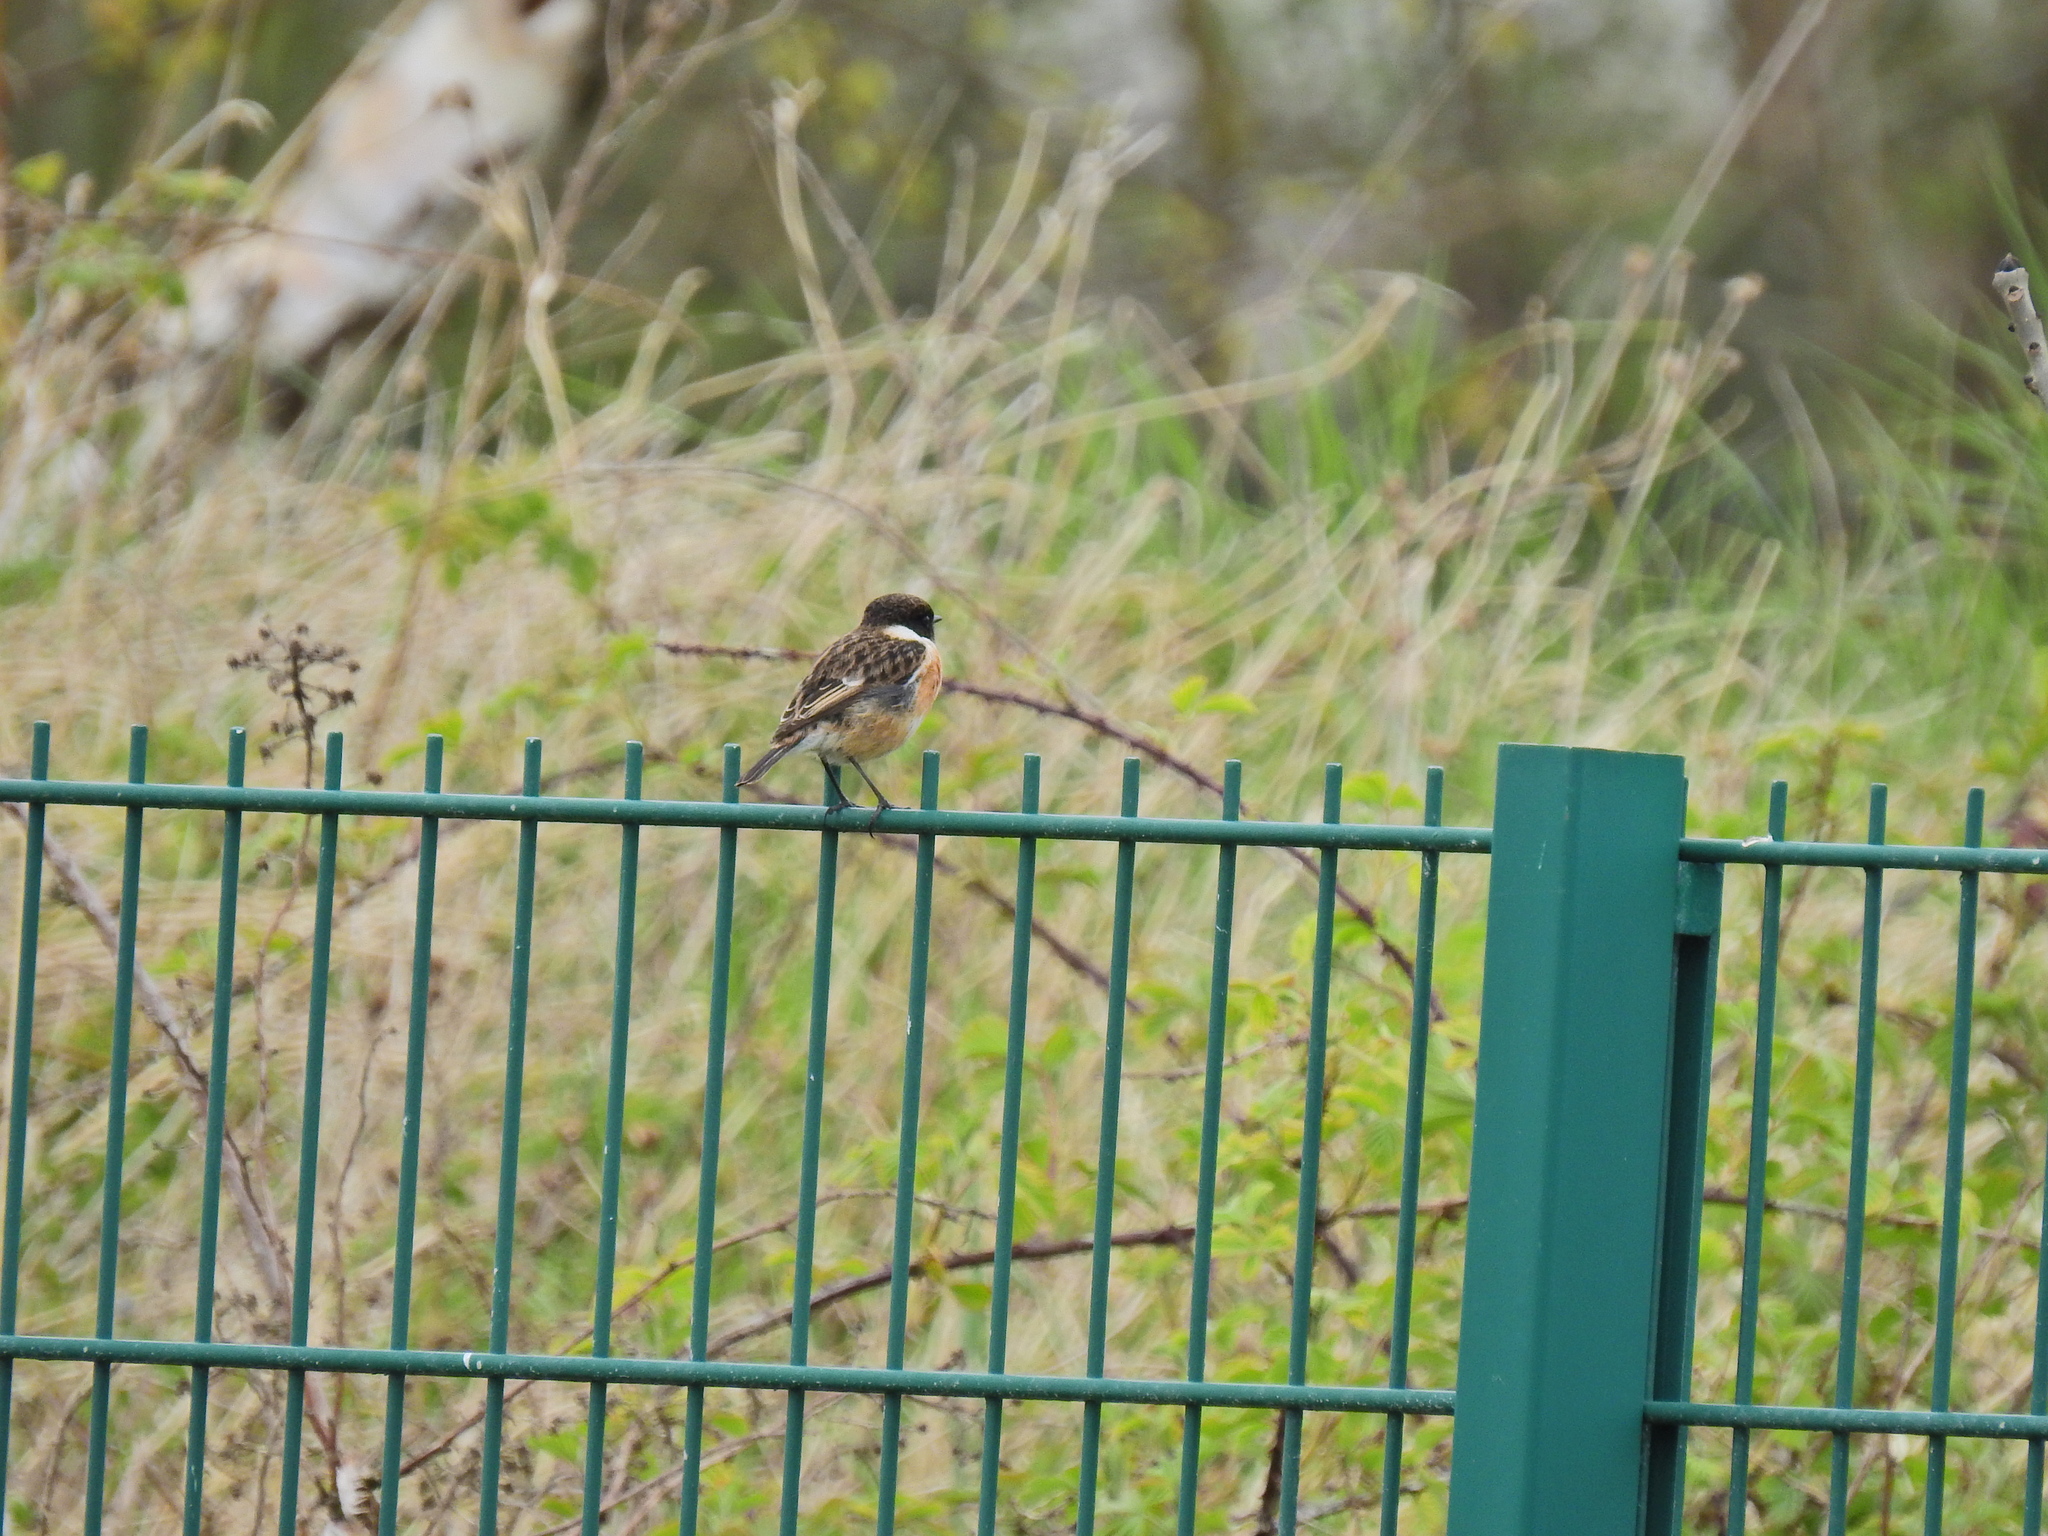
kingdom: Animalia
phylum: Chordata
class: Aves
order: Passeriformes
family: Muscicapidae
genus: Saxicola
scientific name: Saxicola rubicola
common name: European stonechat
